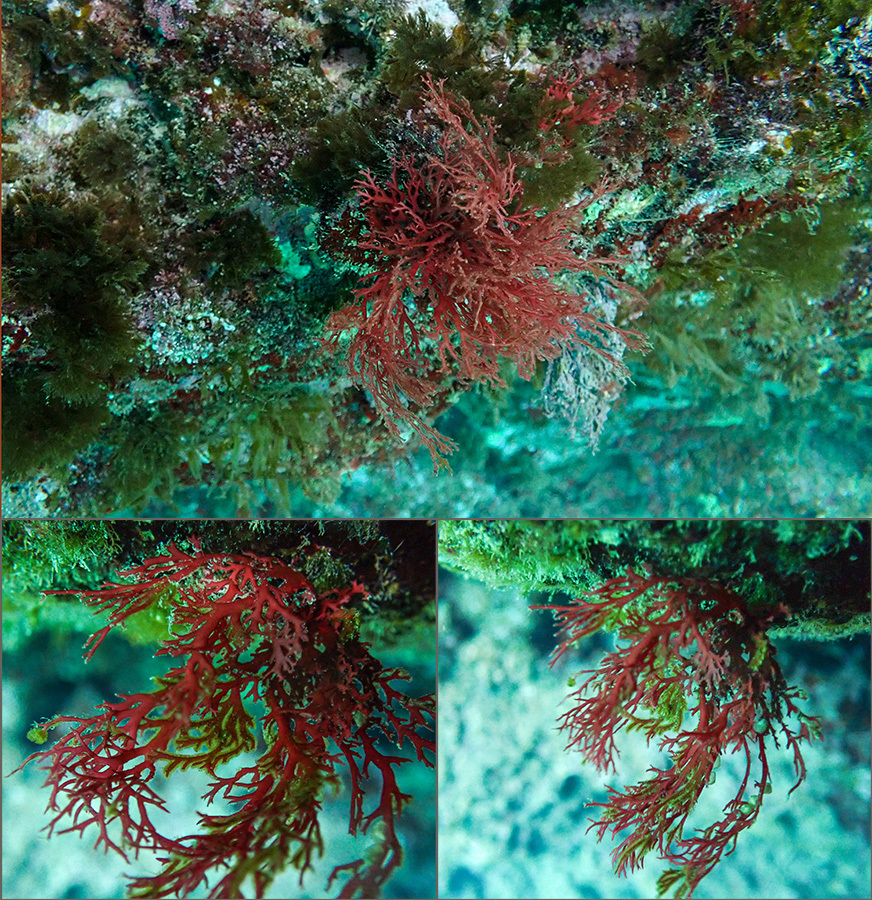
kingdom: Plantae
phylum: Rhodophyta
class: Florideophyceae
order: Gigartinales
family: Sphaerococcaceae
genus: Sphaerococcus
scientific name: Sphaerococcus coronopifolius
